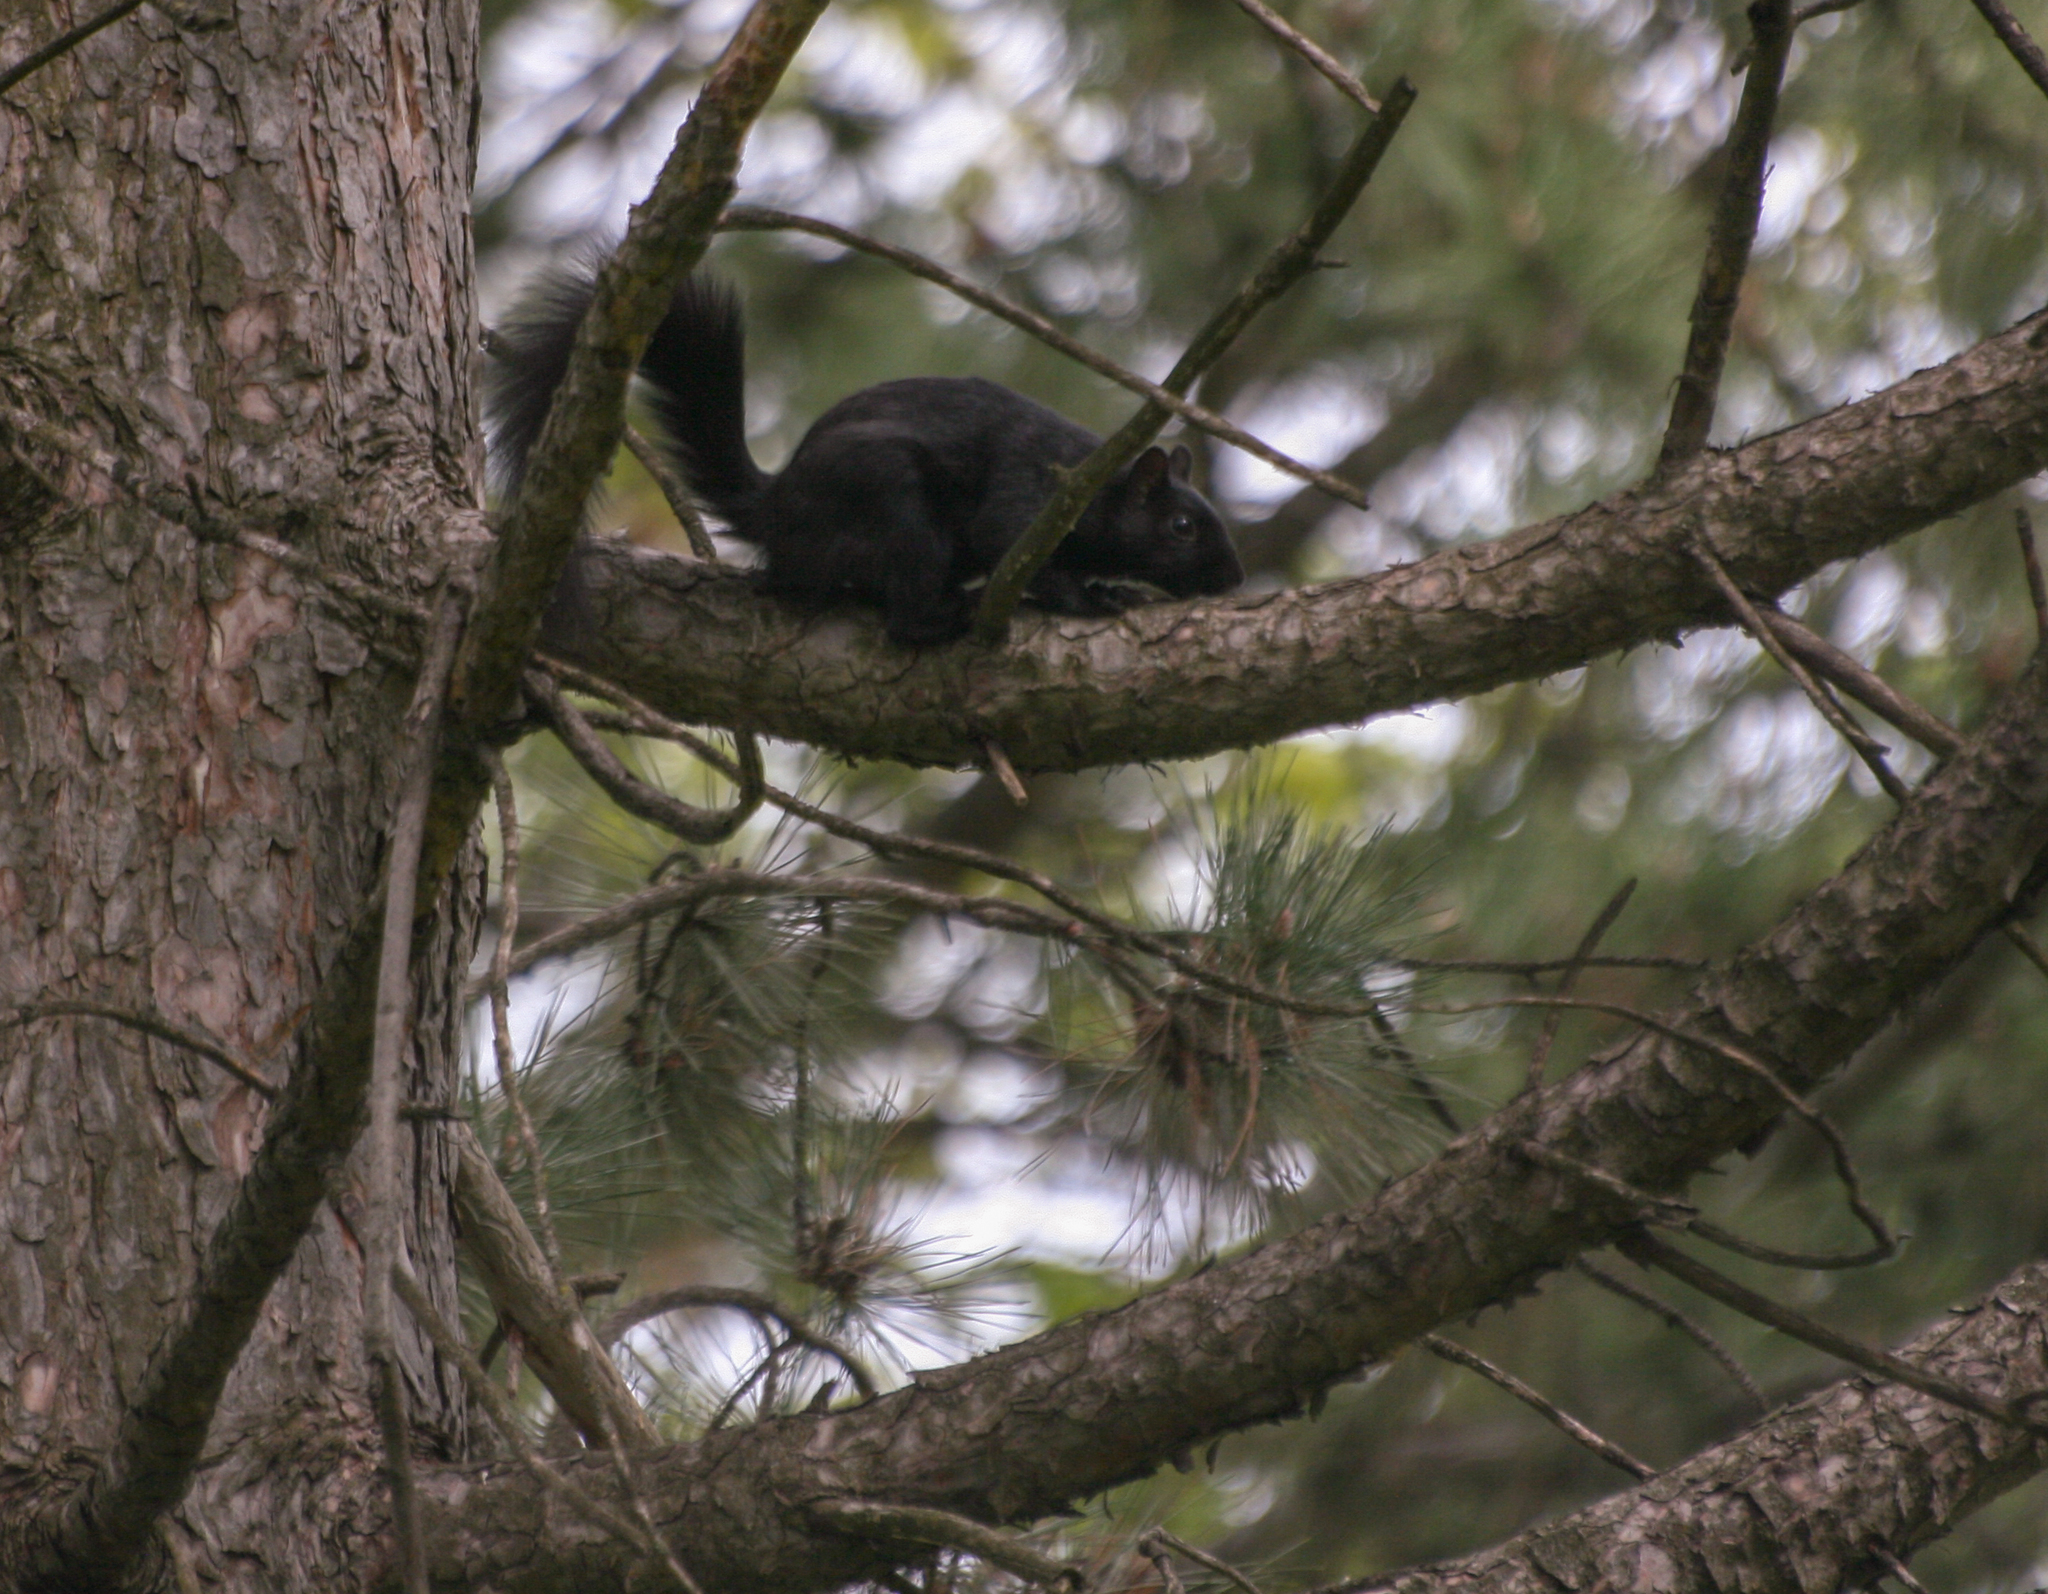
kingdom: Animalia
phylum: Chordata
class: Mammalia
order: Rodentia
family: Sciuridae
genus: Sciurus
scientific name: Sciurus carolinensis
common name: Eastern gray squirrel
